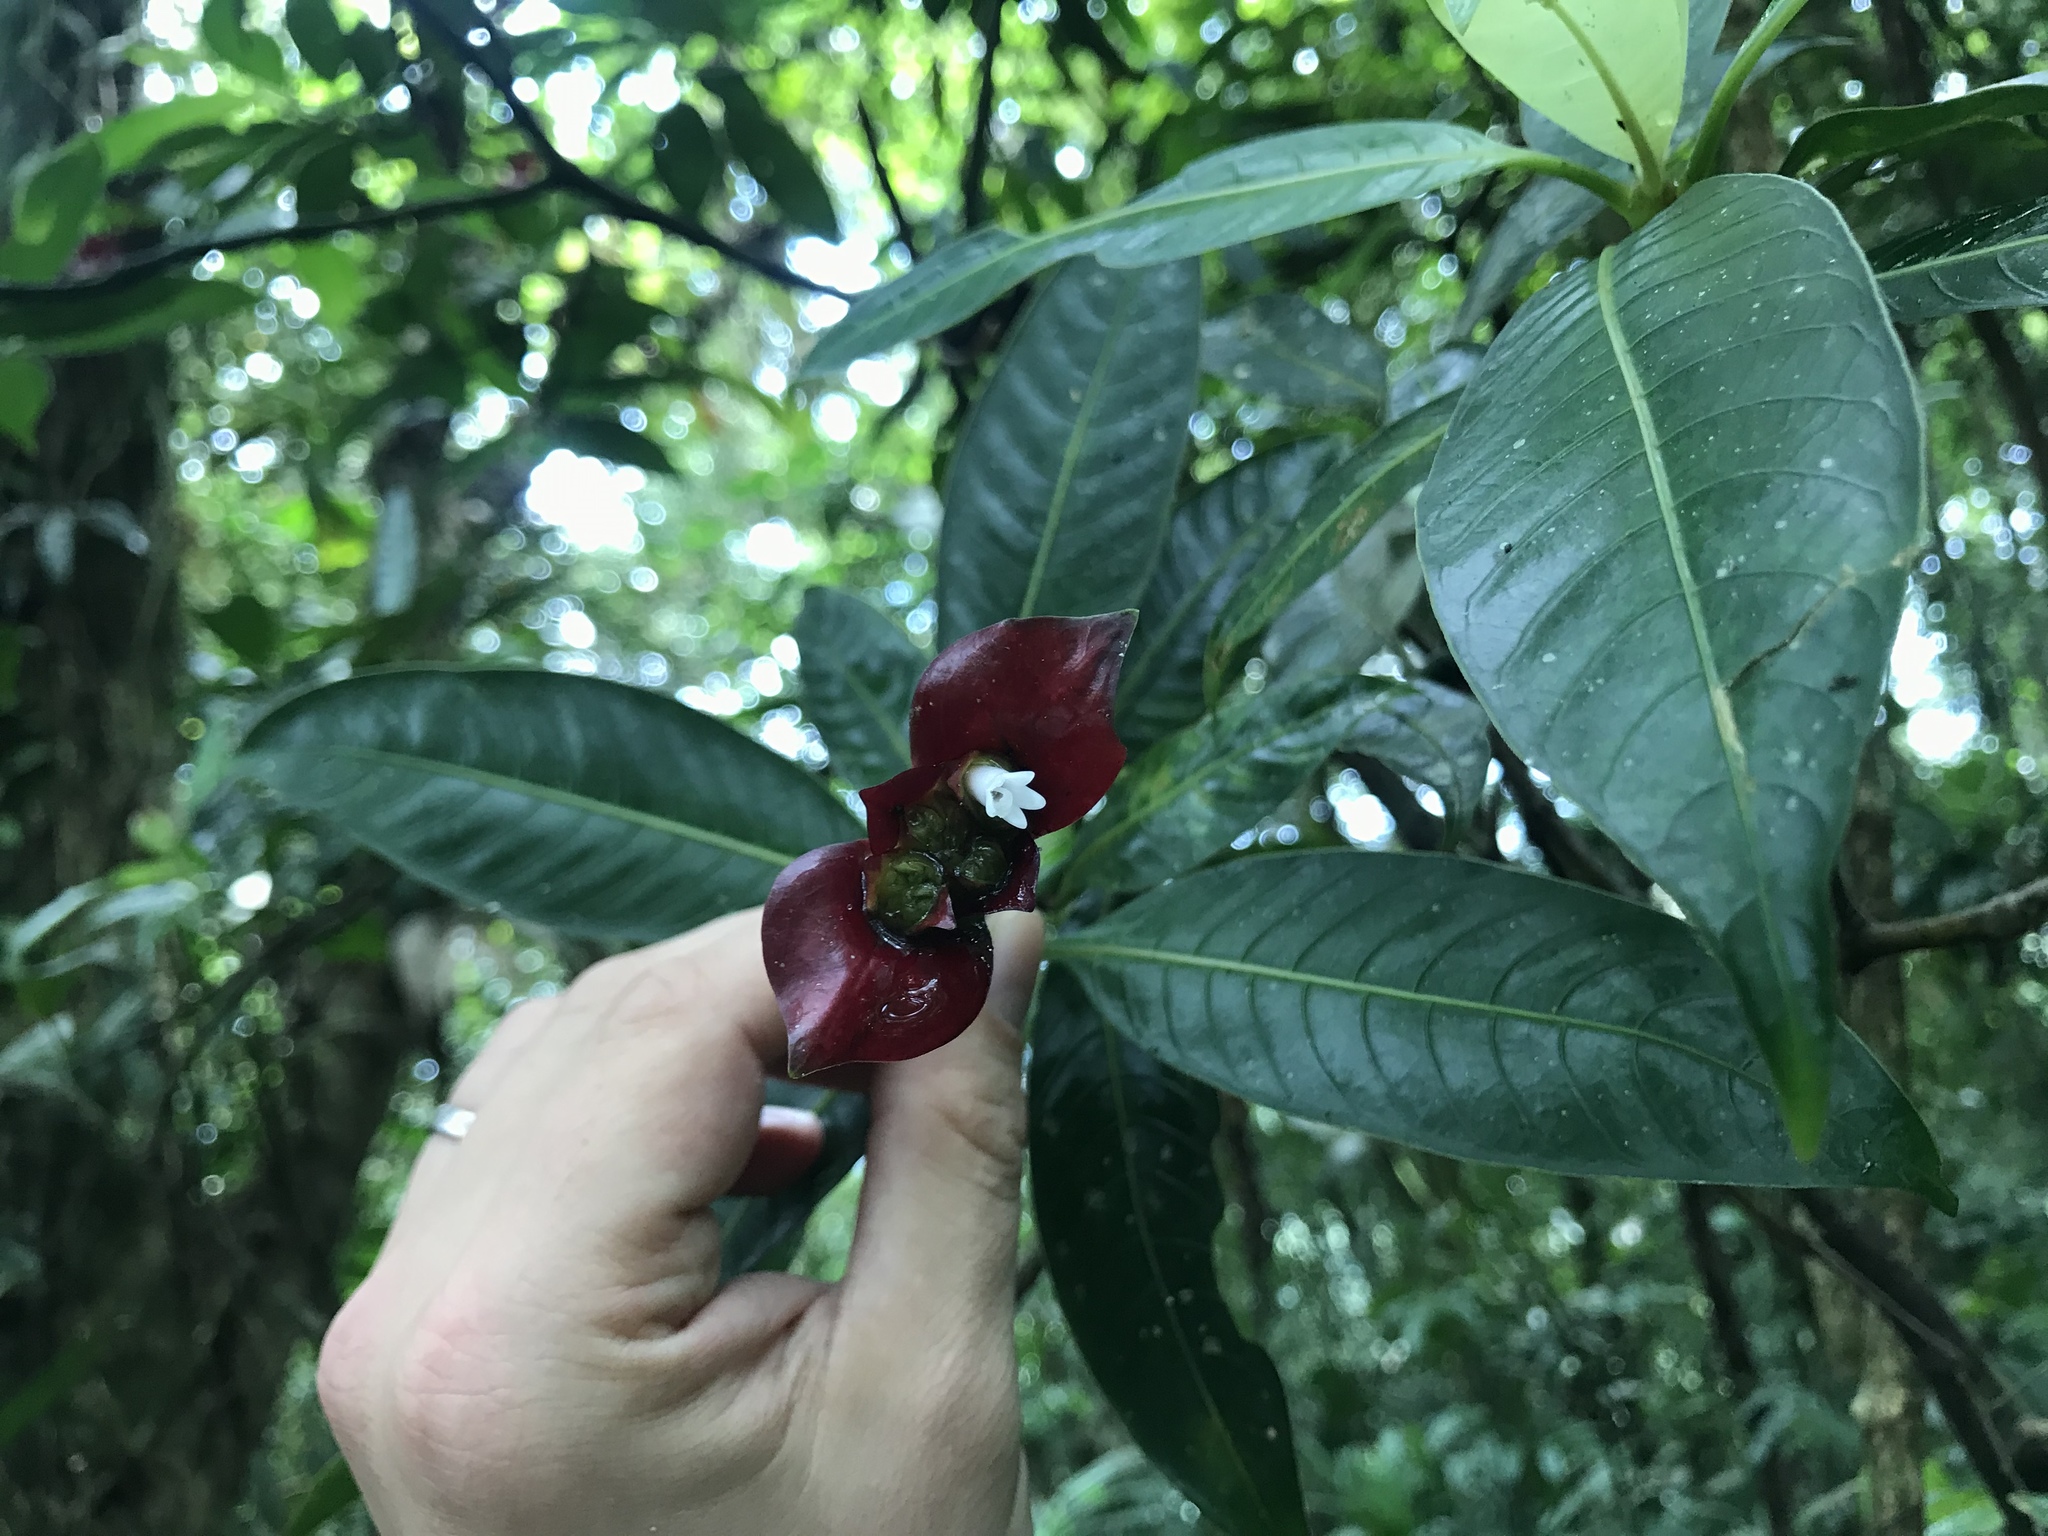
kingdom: Plantae
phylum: Tracheophyta
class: Magnoliopsida
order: Gentianales
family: Rubiaceae
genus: Palicourea
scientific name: Palicourea elata
